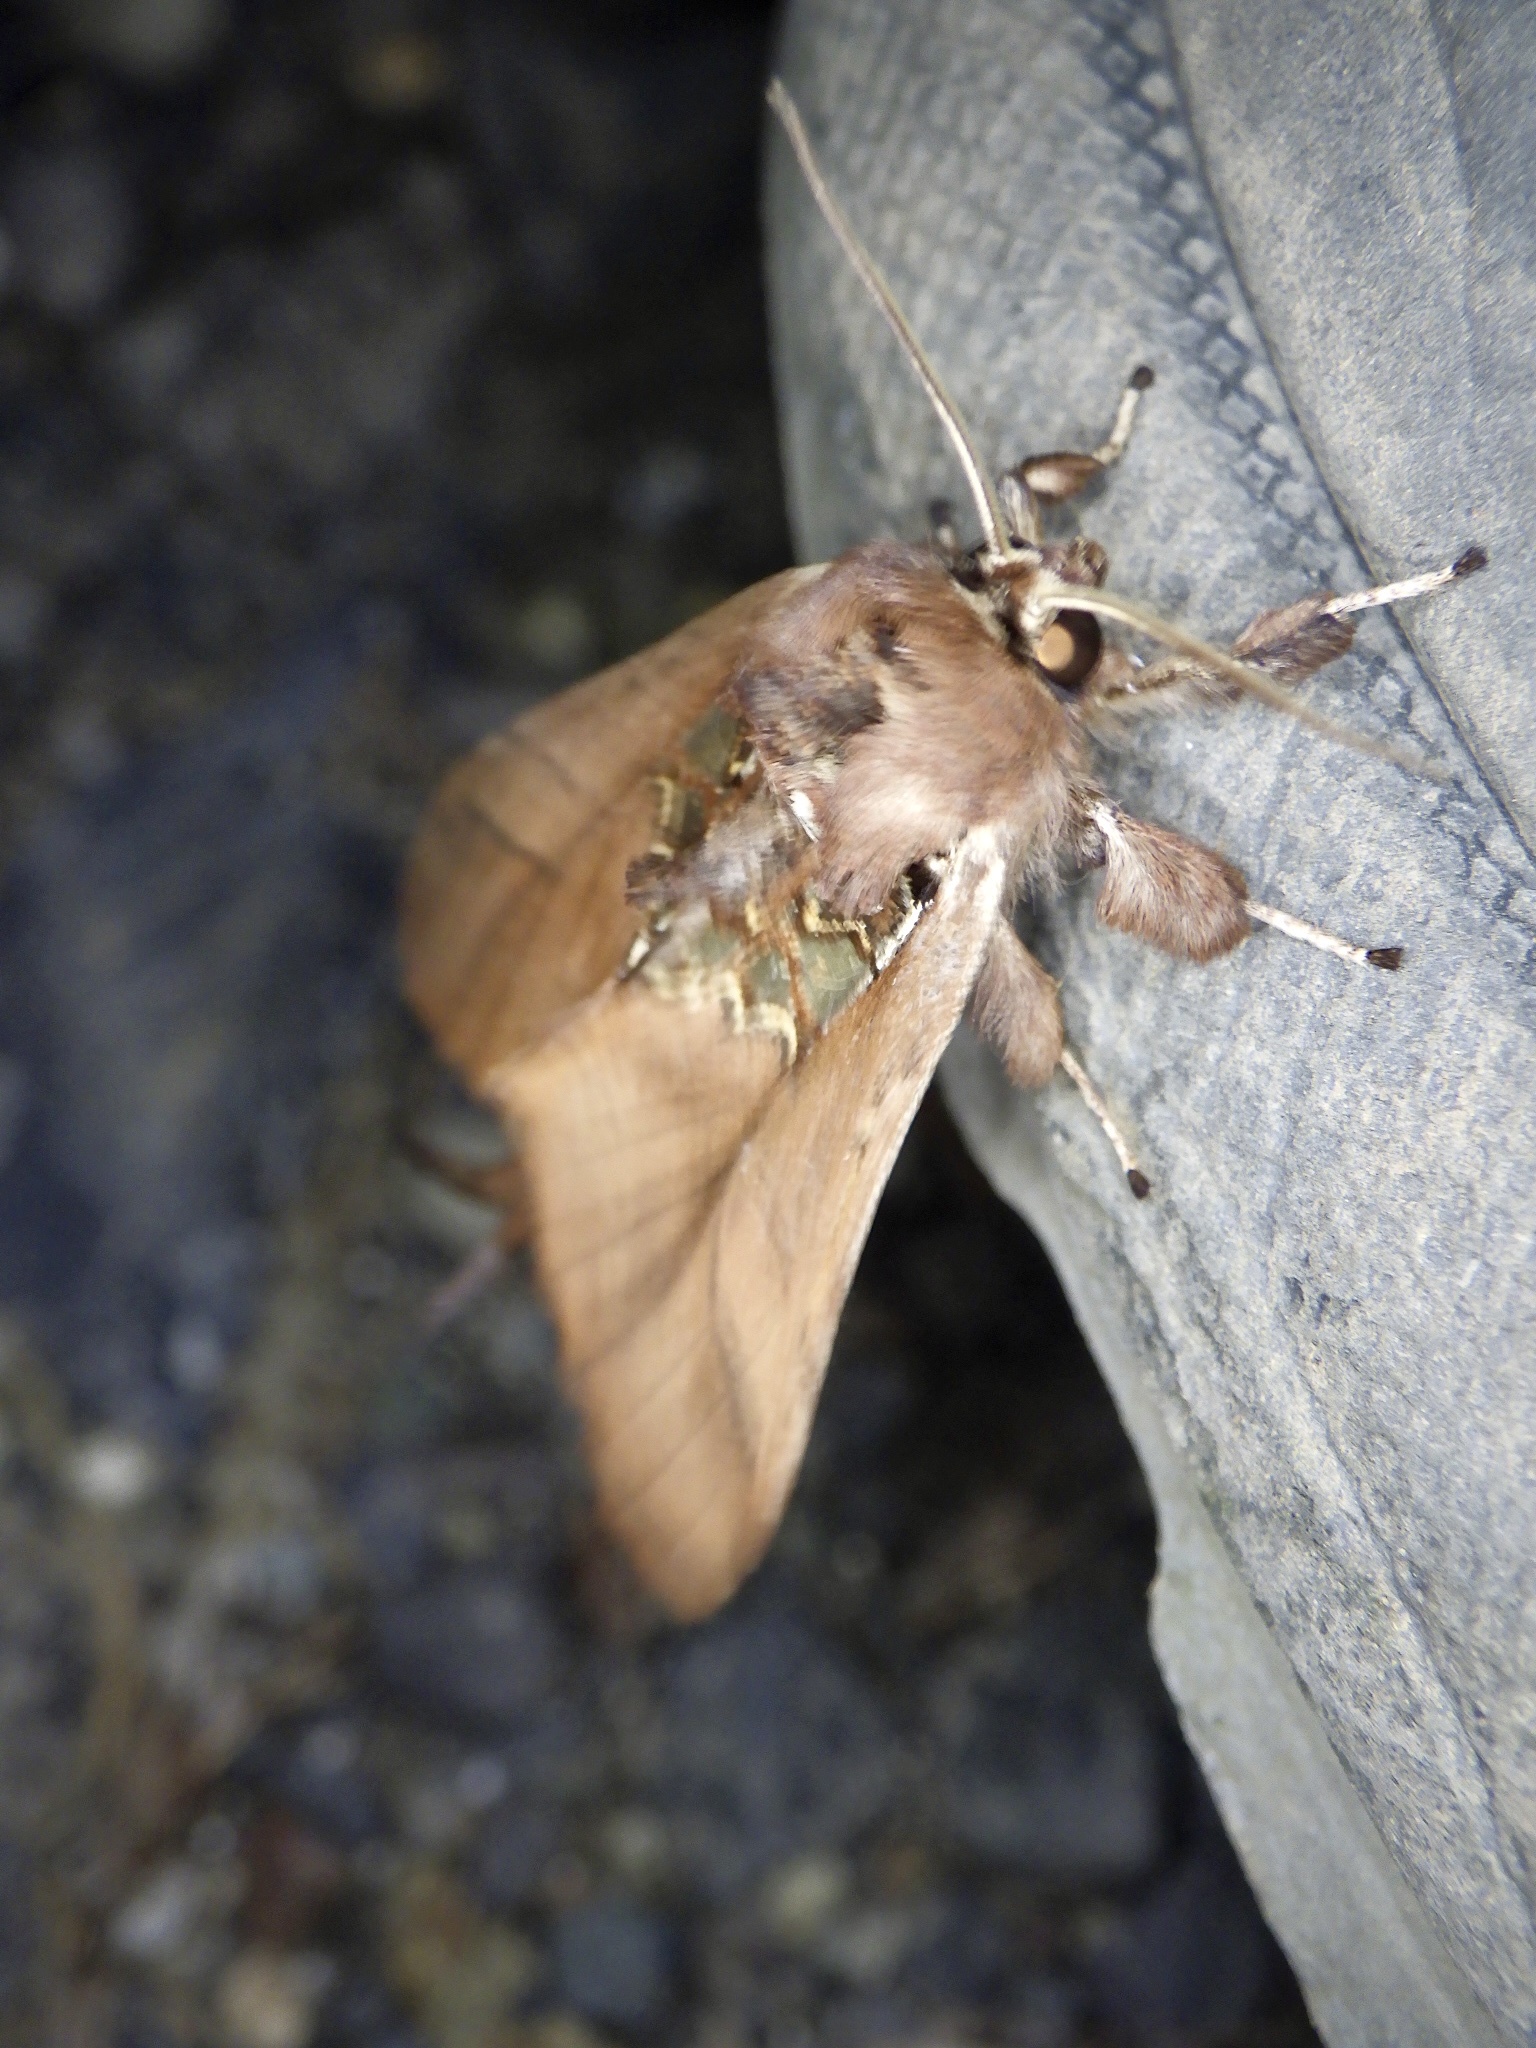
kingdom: Animalia
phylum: Arthropoda
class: Insecta
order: Lepidoptera
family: Notodontidae
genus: Spatalia
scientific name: Spatalia dives
